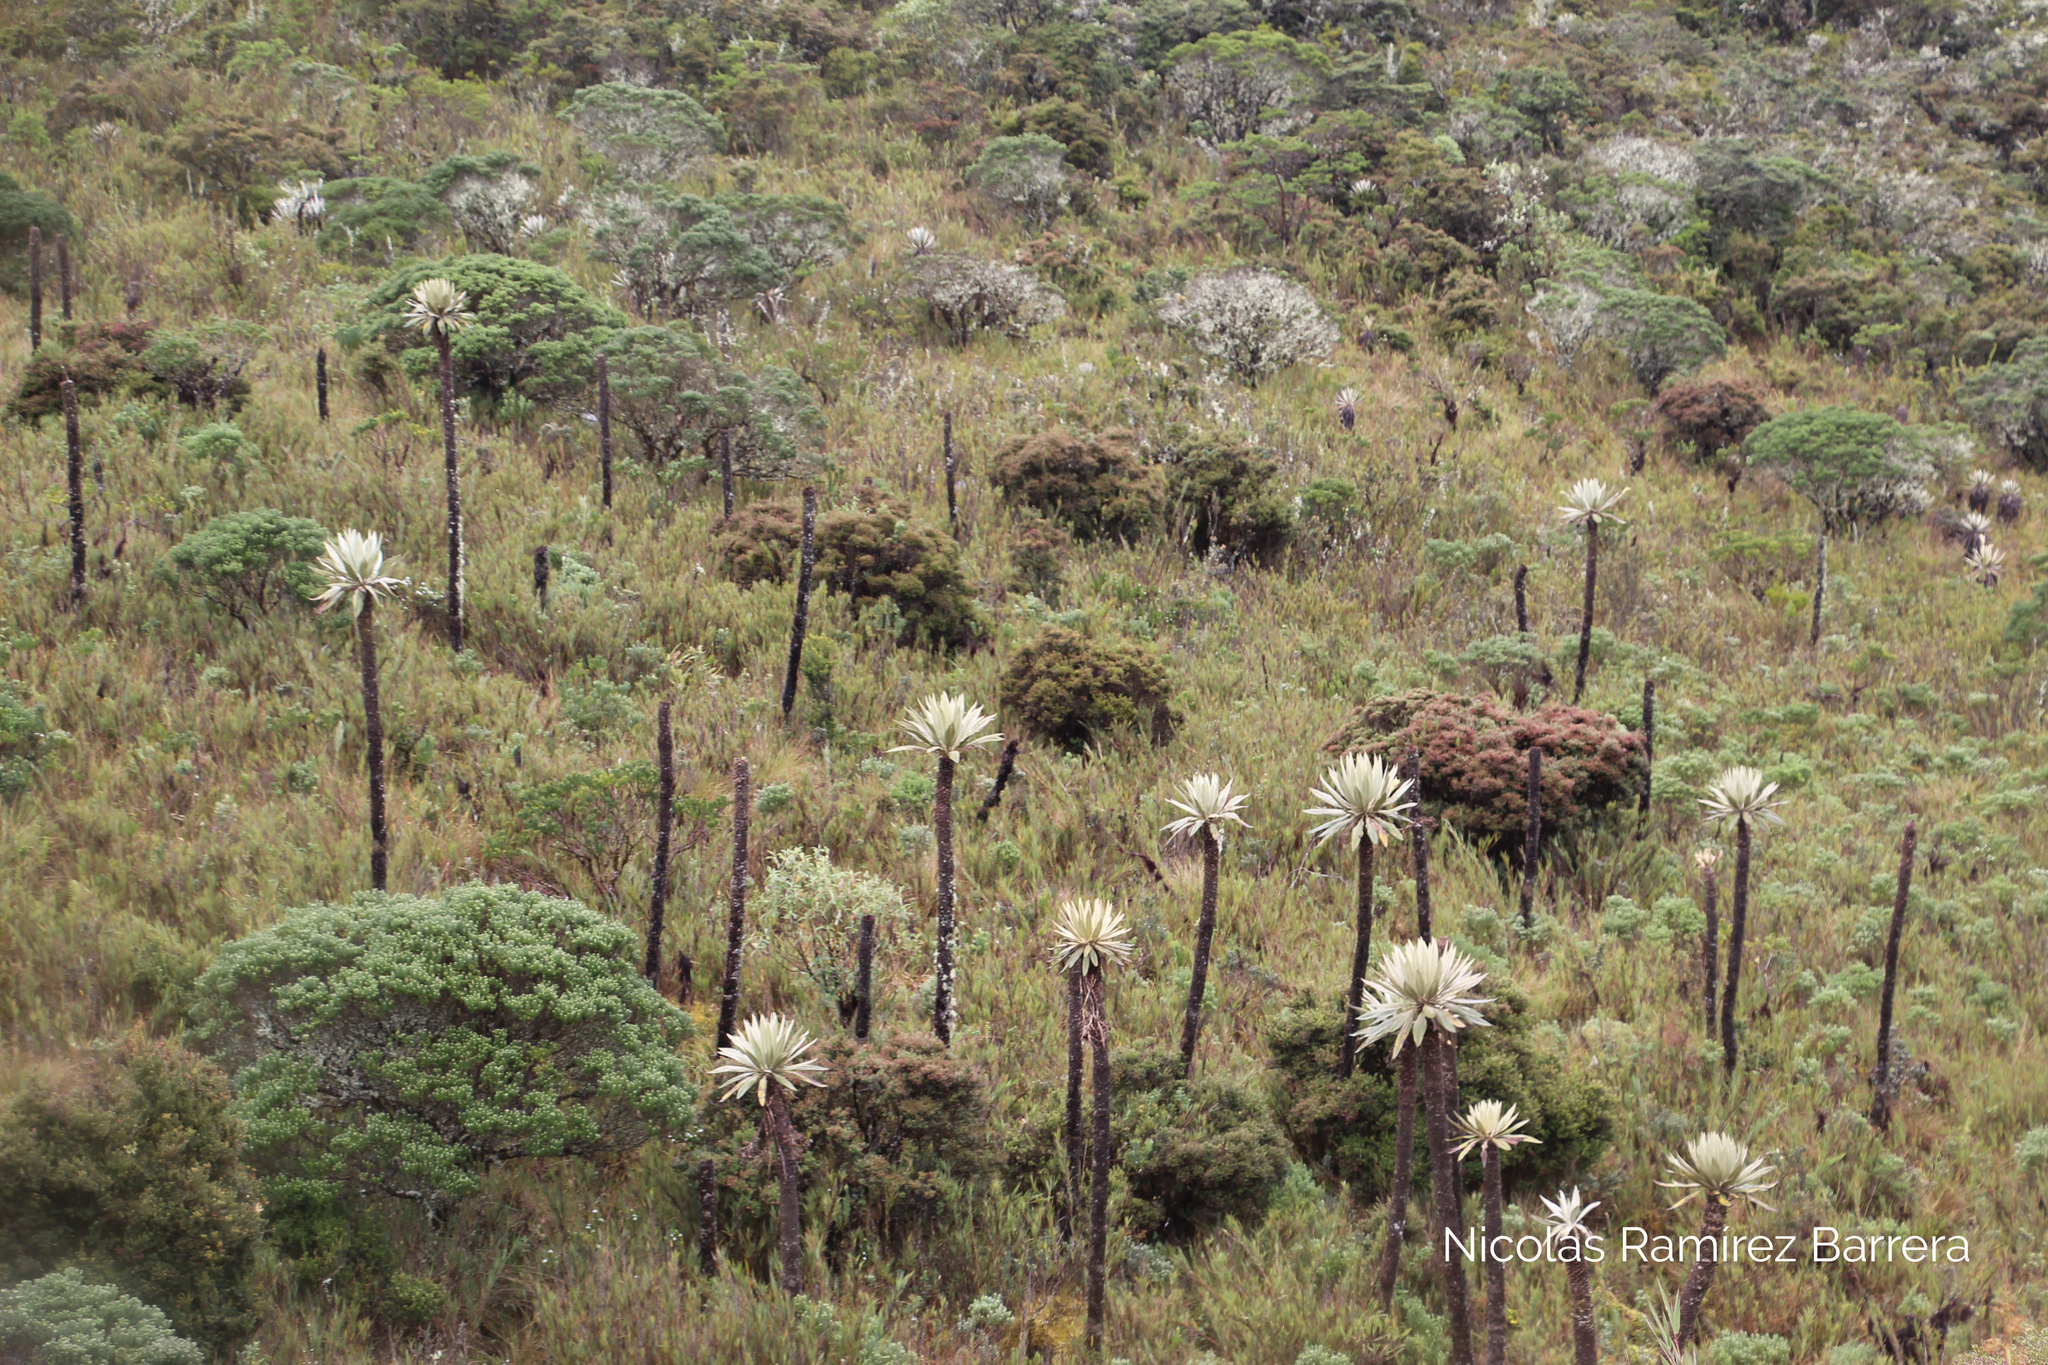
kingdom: Plantae
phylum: Tracheophyta
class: Magnoliopsida
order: Asterales
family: Asteraceae
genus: Espeletia
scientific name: Espeletia grandiflora
